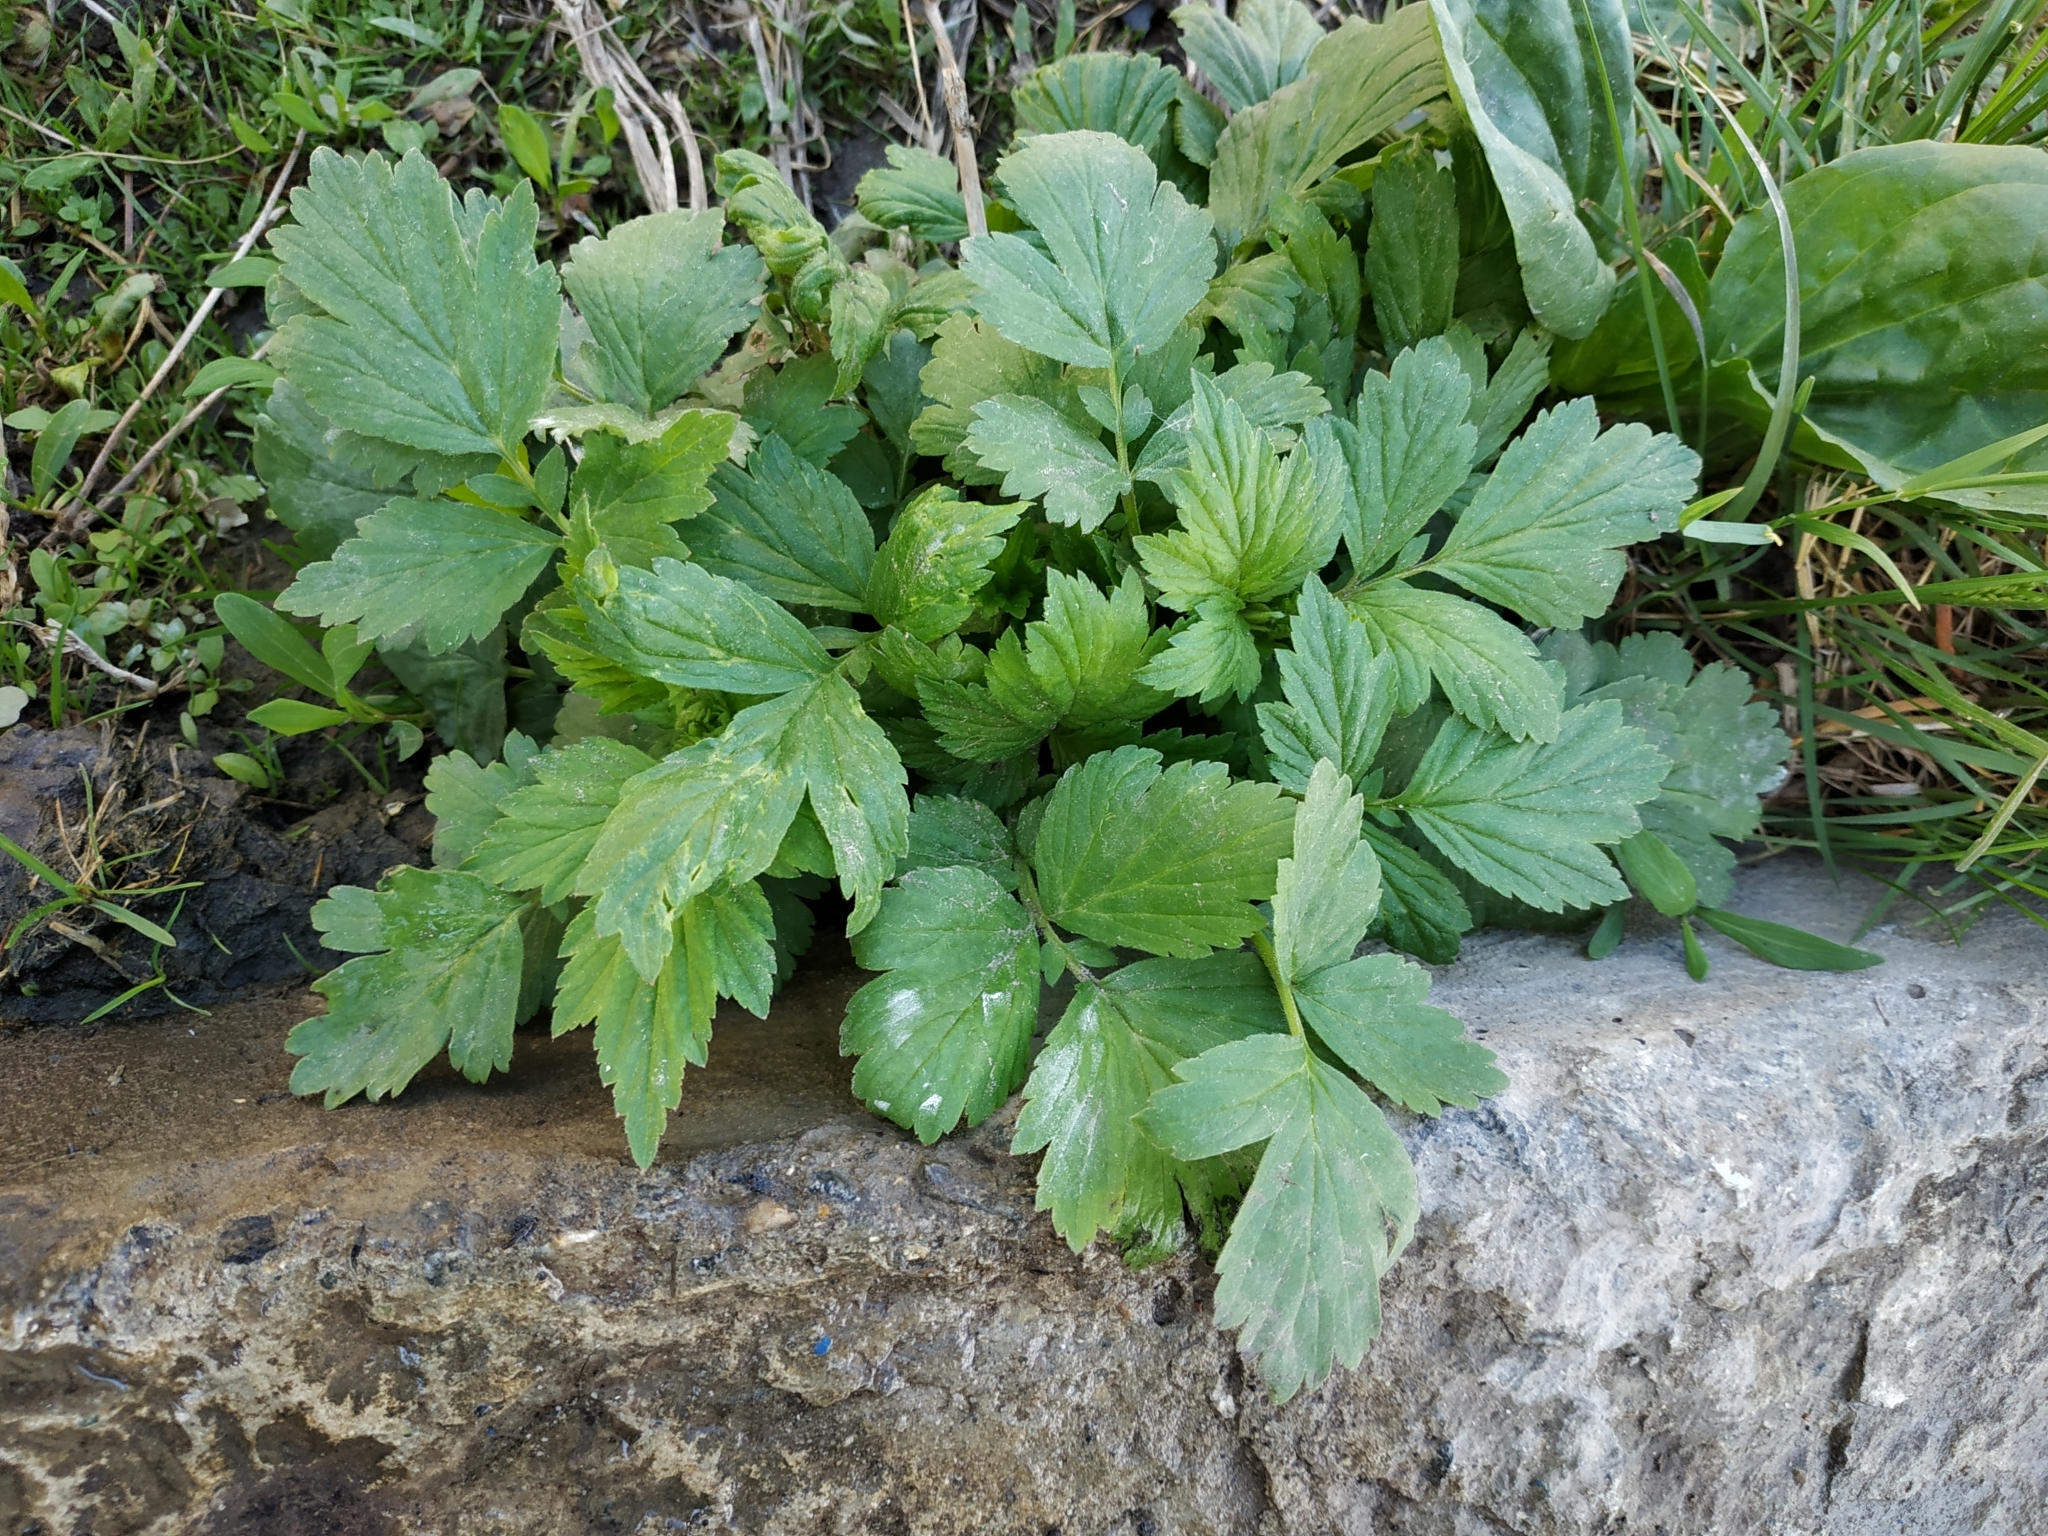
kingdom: Plantae
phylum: Tracheophyta
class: Magnoliopsida
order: Rosales
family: Rosaceae
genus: Geum
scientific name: Geum aleppicum
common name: Yellow avens
